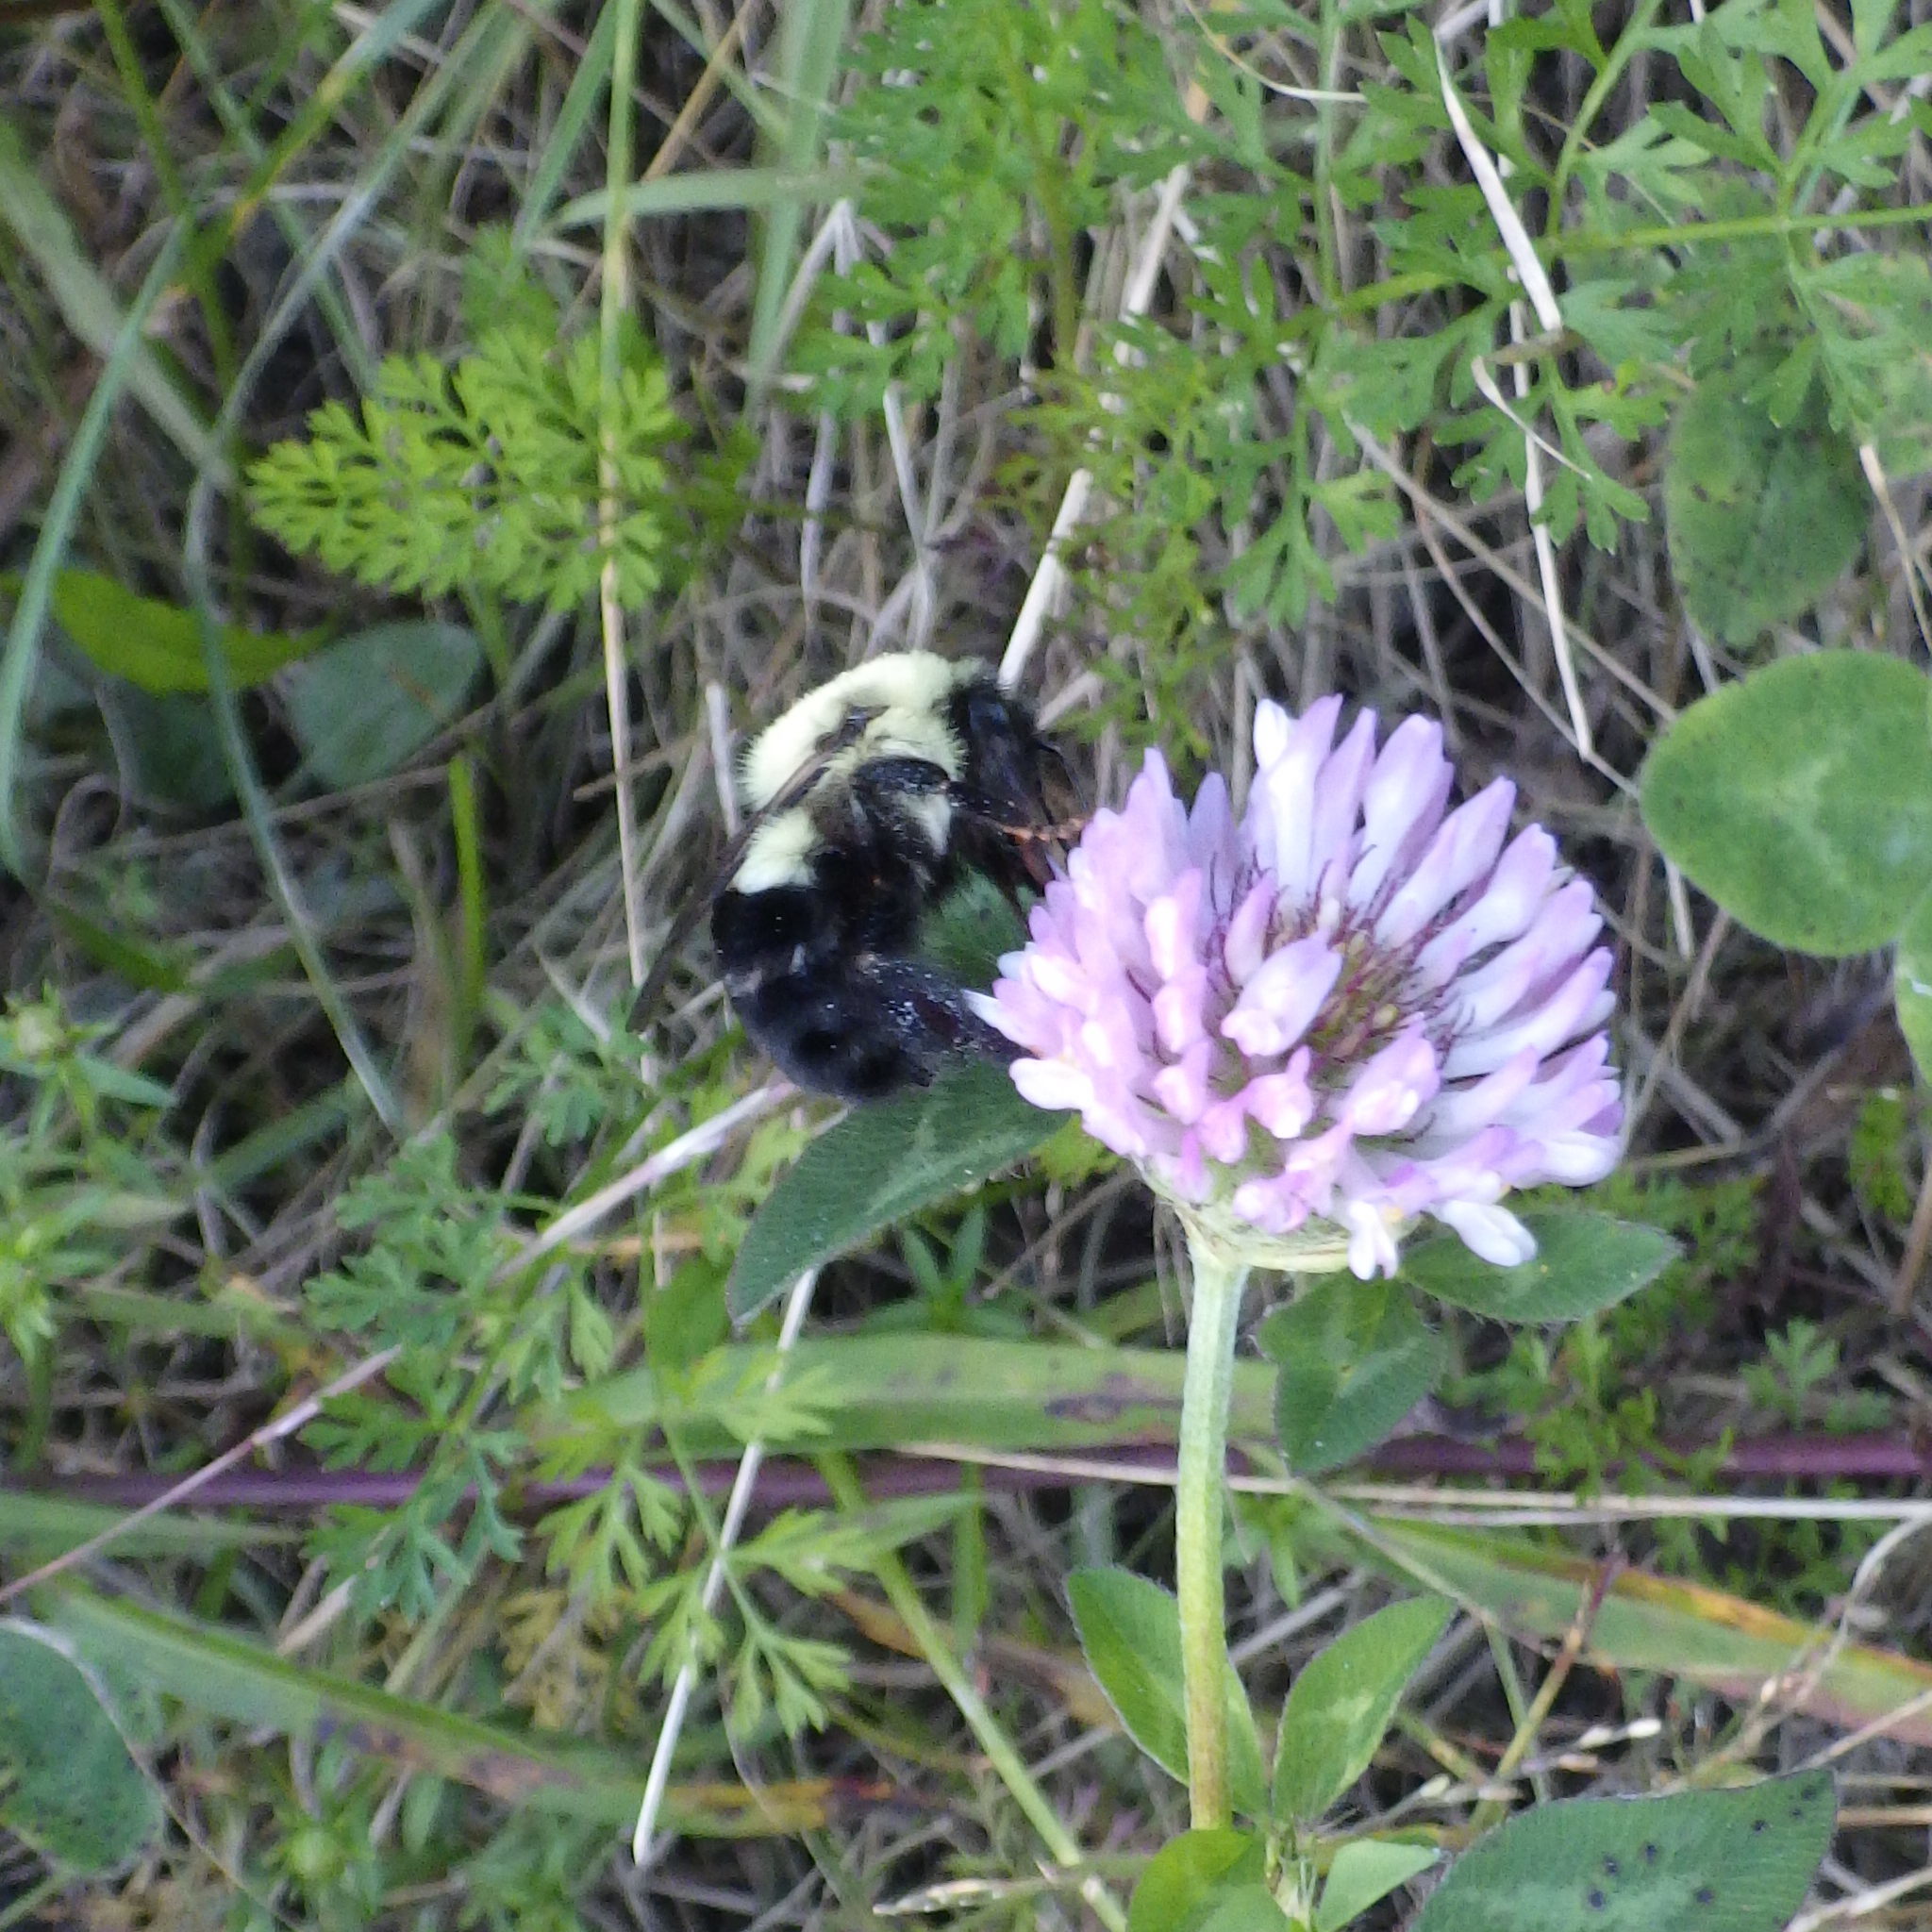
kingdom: Animalia
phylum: Arthropoda
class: Insecta
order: Hymenoptera
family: Apidae
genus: Bombus
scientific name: Bombus impatiens
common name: Common eastern bumble bee
